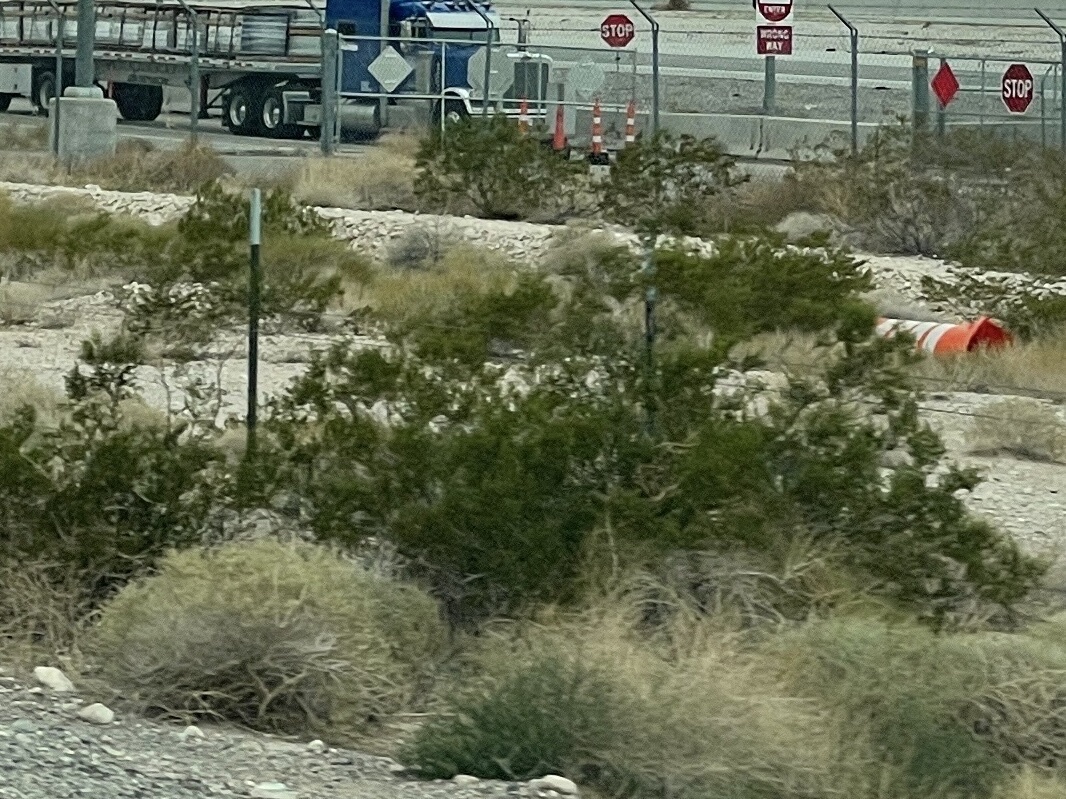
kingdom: Plantae
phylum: Tracheophyta
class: Magnoliopsida
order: Zygophyllales
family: Zygophyllaceae
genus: Larrea
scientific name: Larrea tridentata
